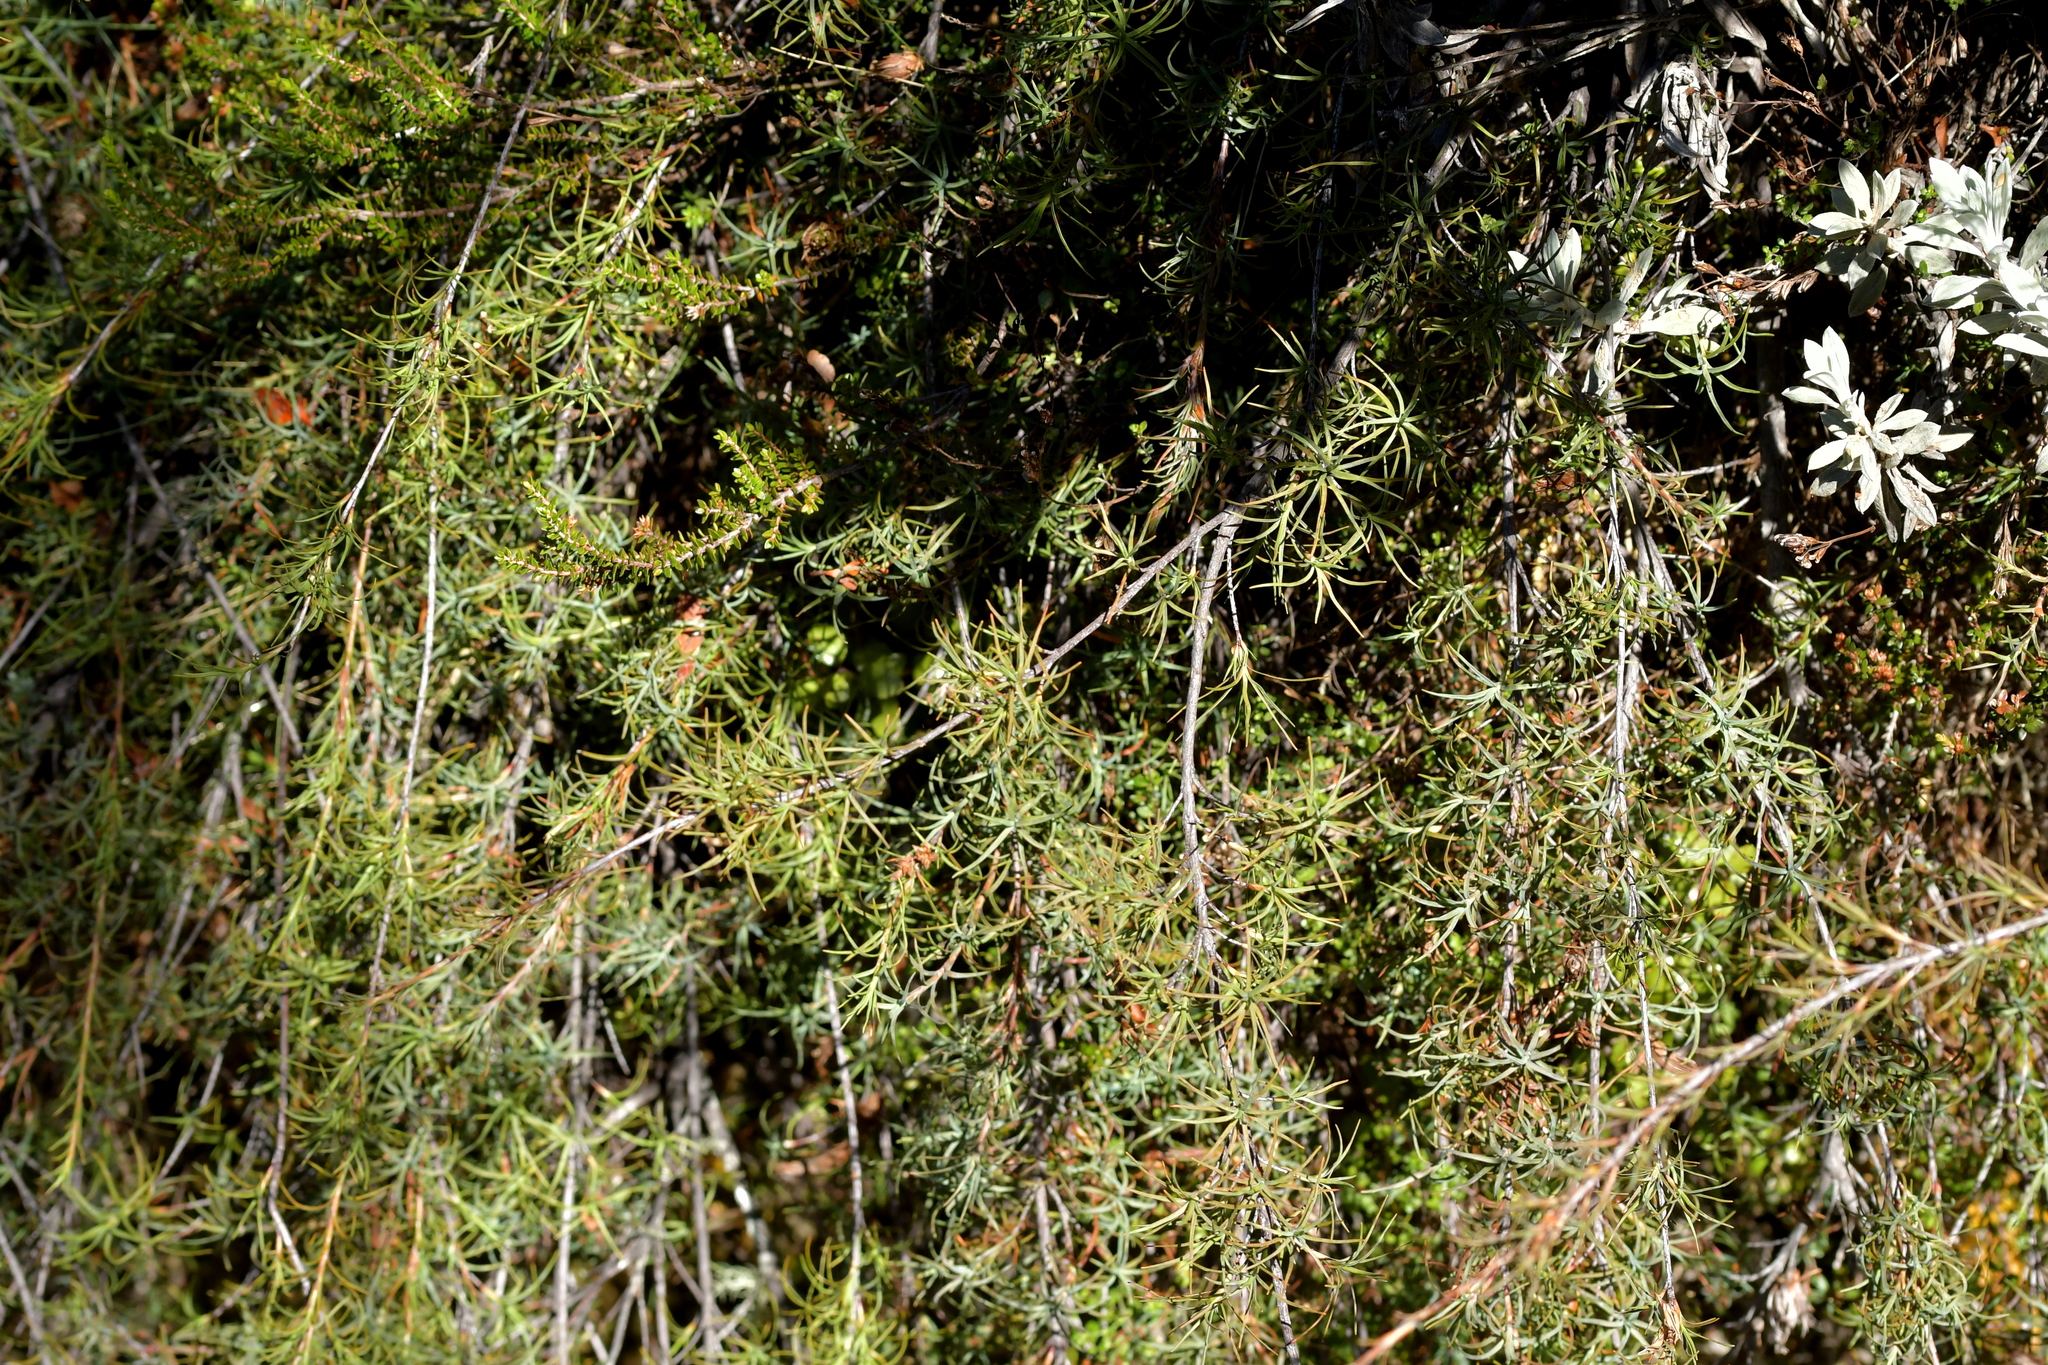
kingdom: Plantae
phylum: Tracheophyta
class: Magnoliopsida
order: Ericales
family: Ericaceae
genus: Dracophyllum
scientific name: Dracophyllum
